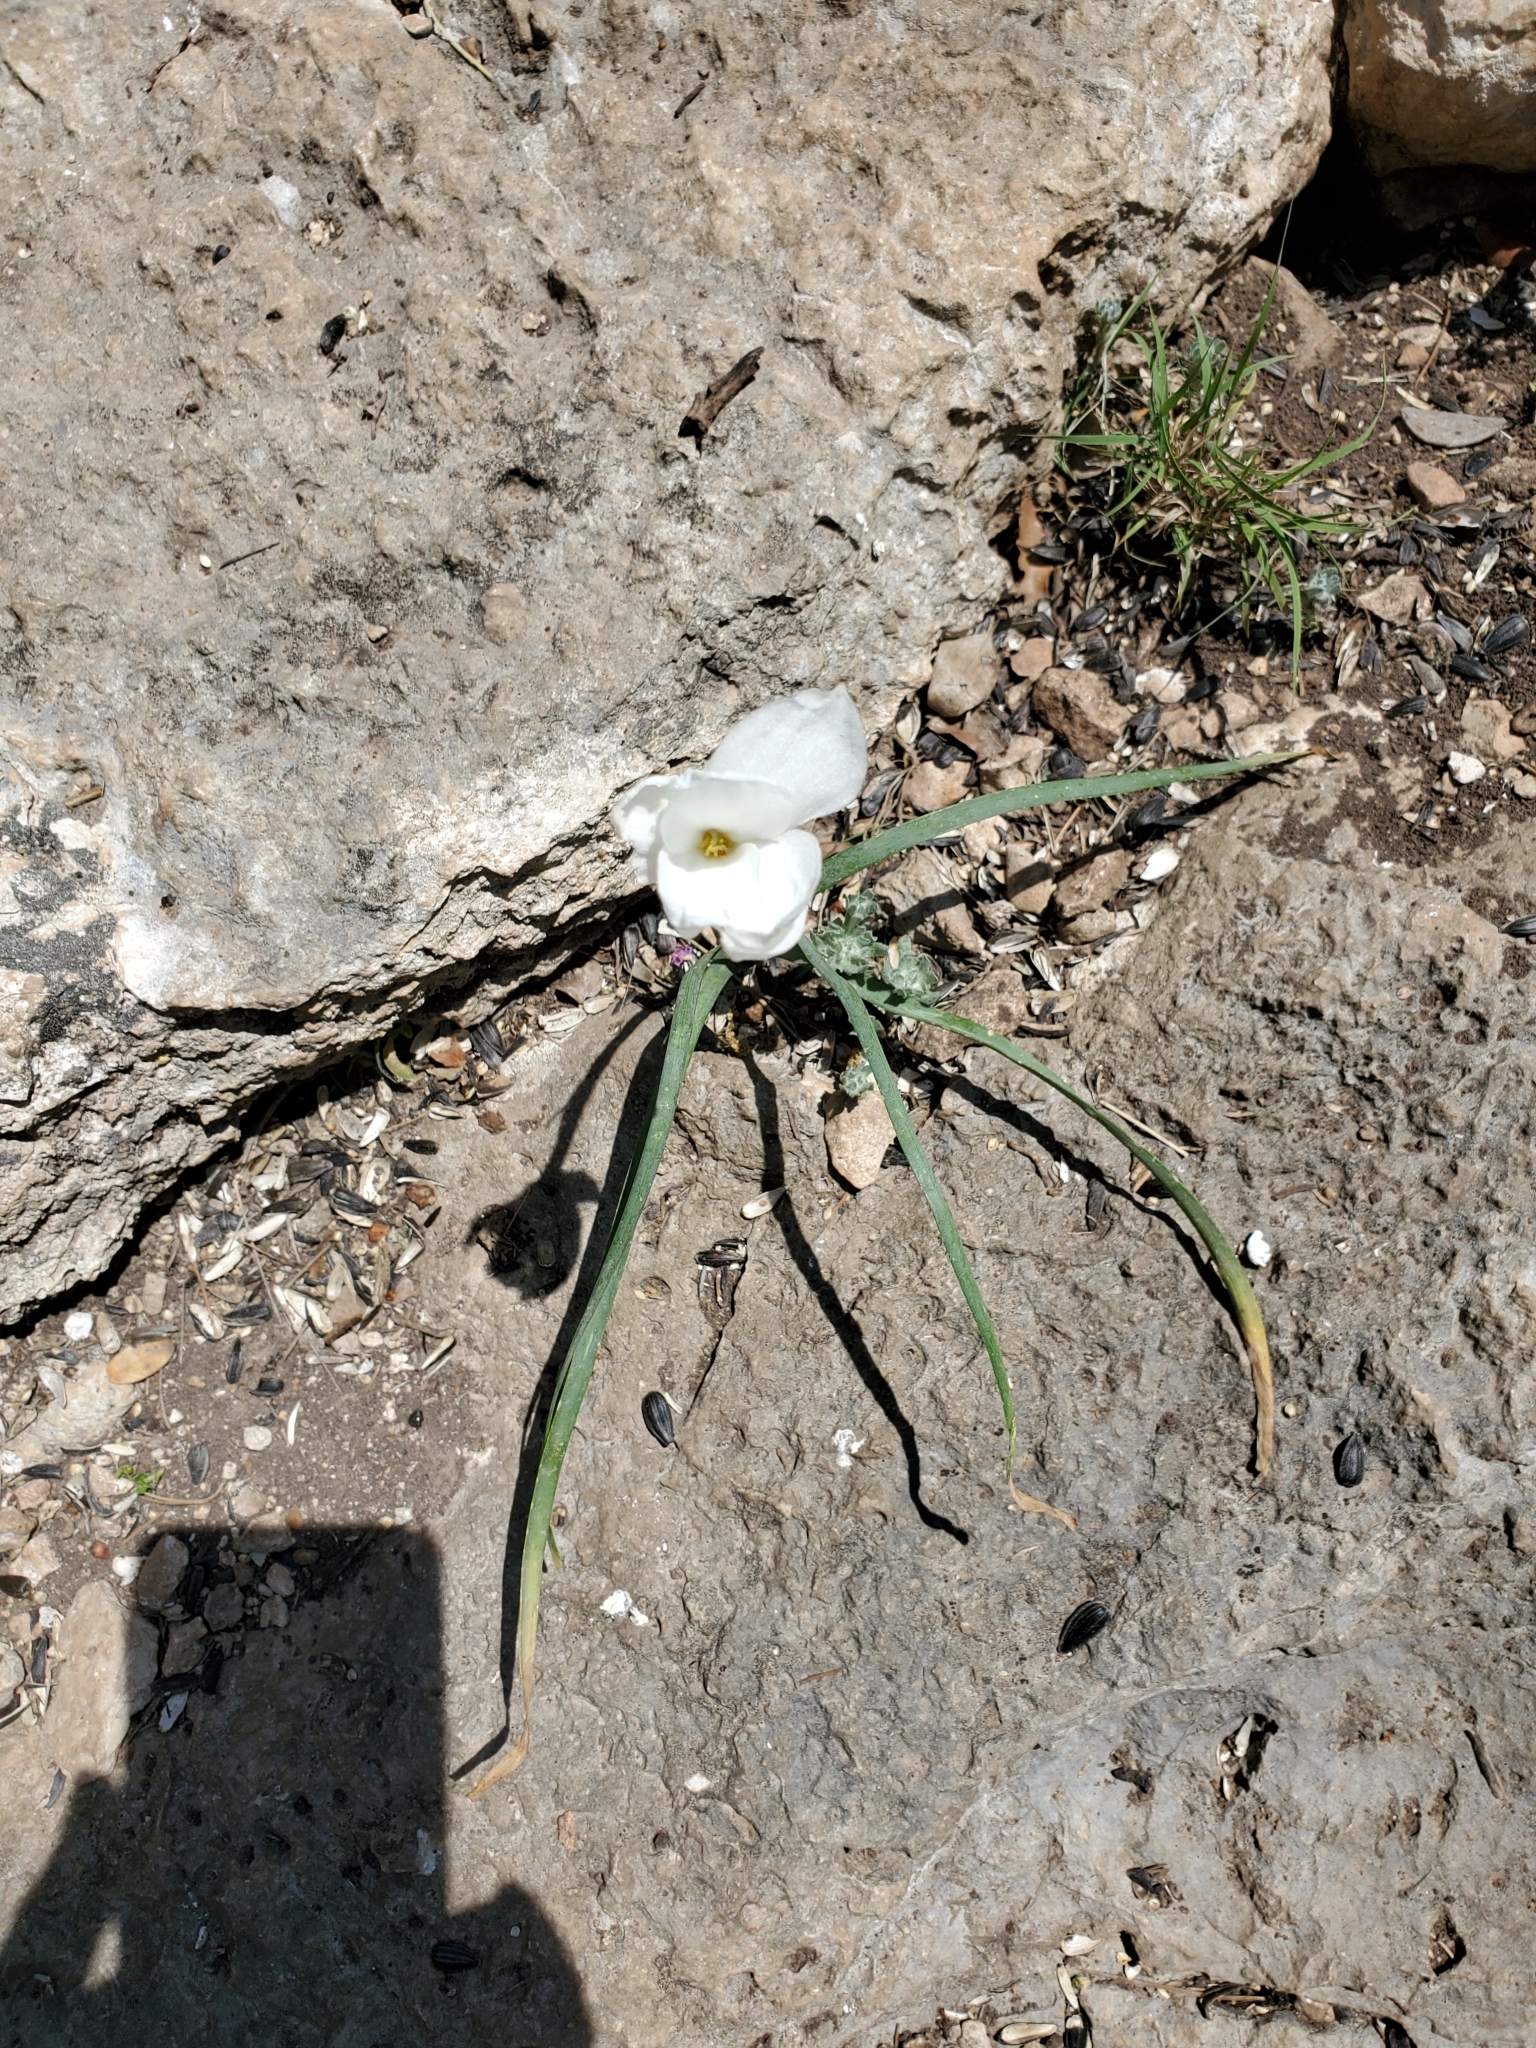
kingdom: Plantae
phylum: Tracheophyta
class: Liliopsida
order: Asparagales
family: Amaryllidaceae
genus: Zephyranthes
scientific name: Zephyranthes drummondii
